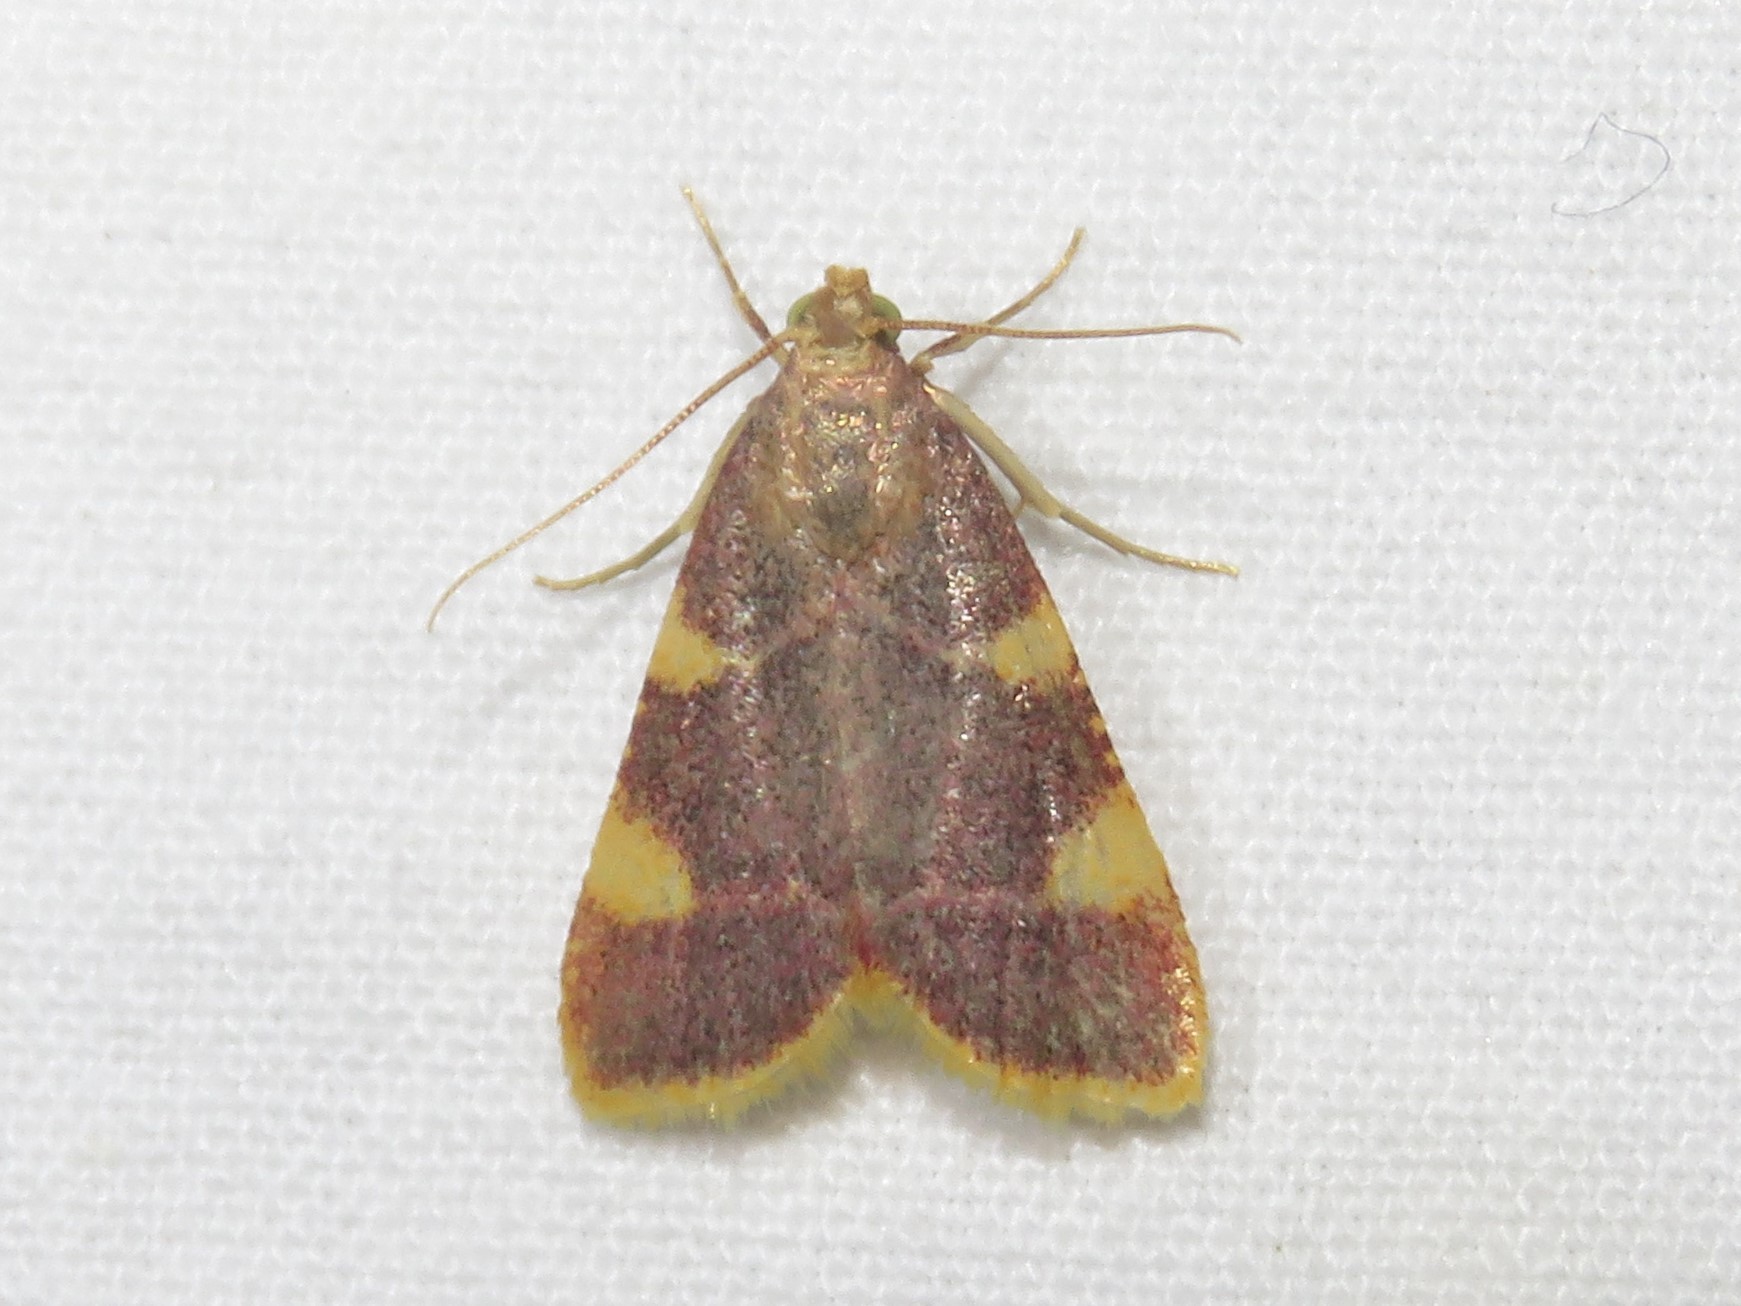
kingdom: Animalia
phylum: Arthropoda
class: Insecta
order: Lepidoptera
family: Pyralidae
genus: Hypsopygia
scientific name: Hypsopygia costalis
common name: Gold triangle
